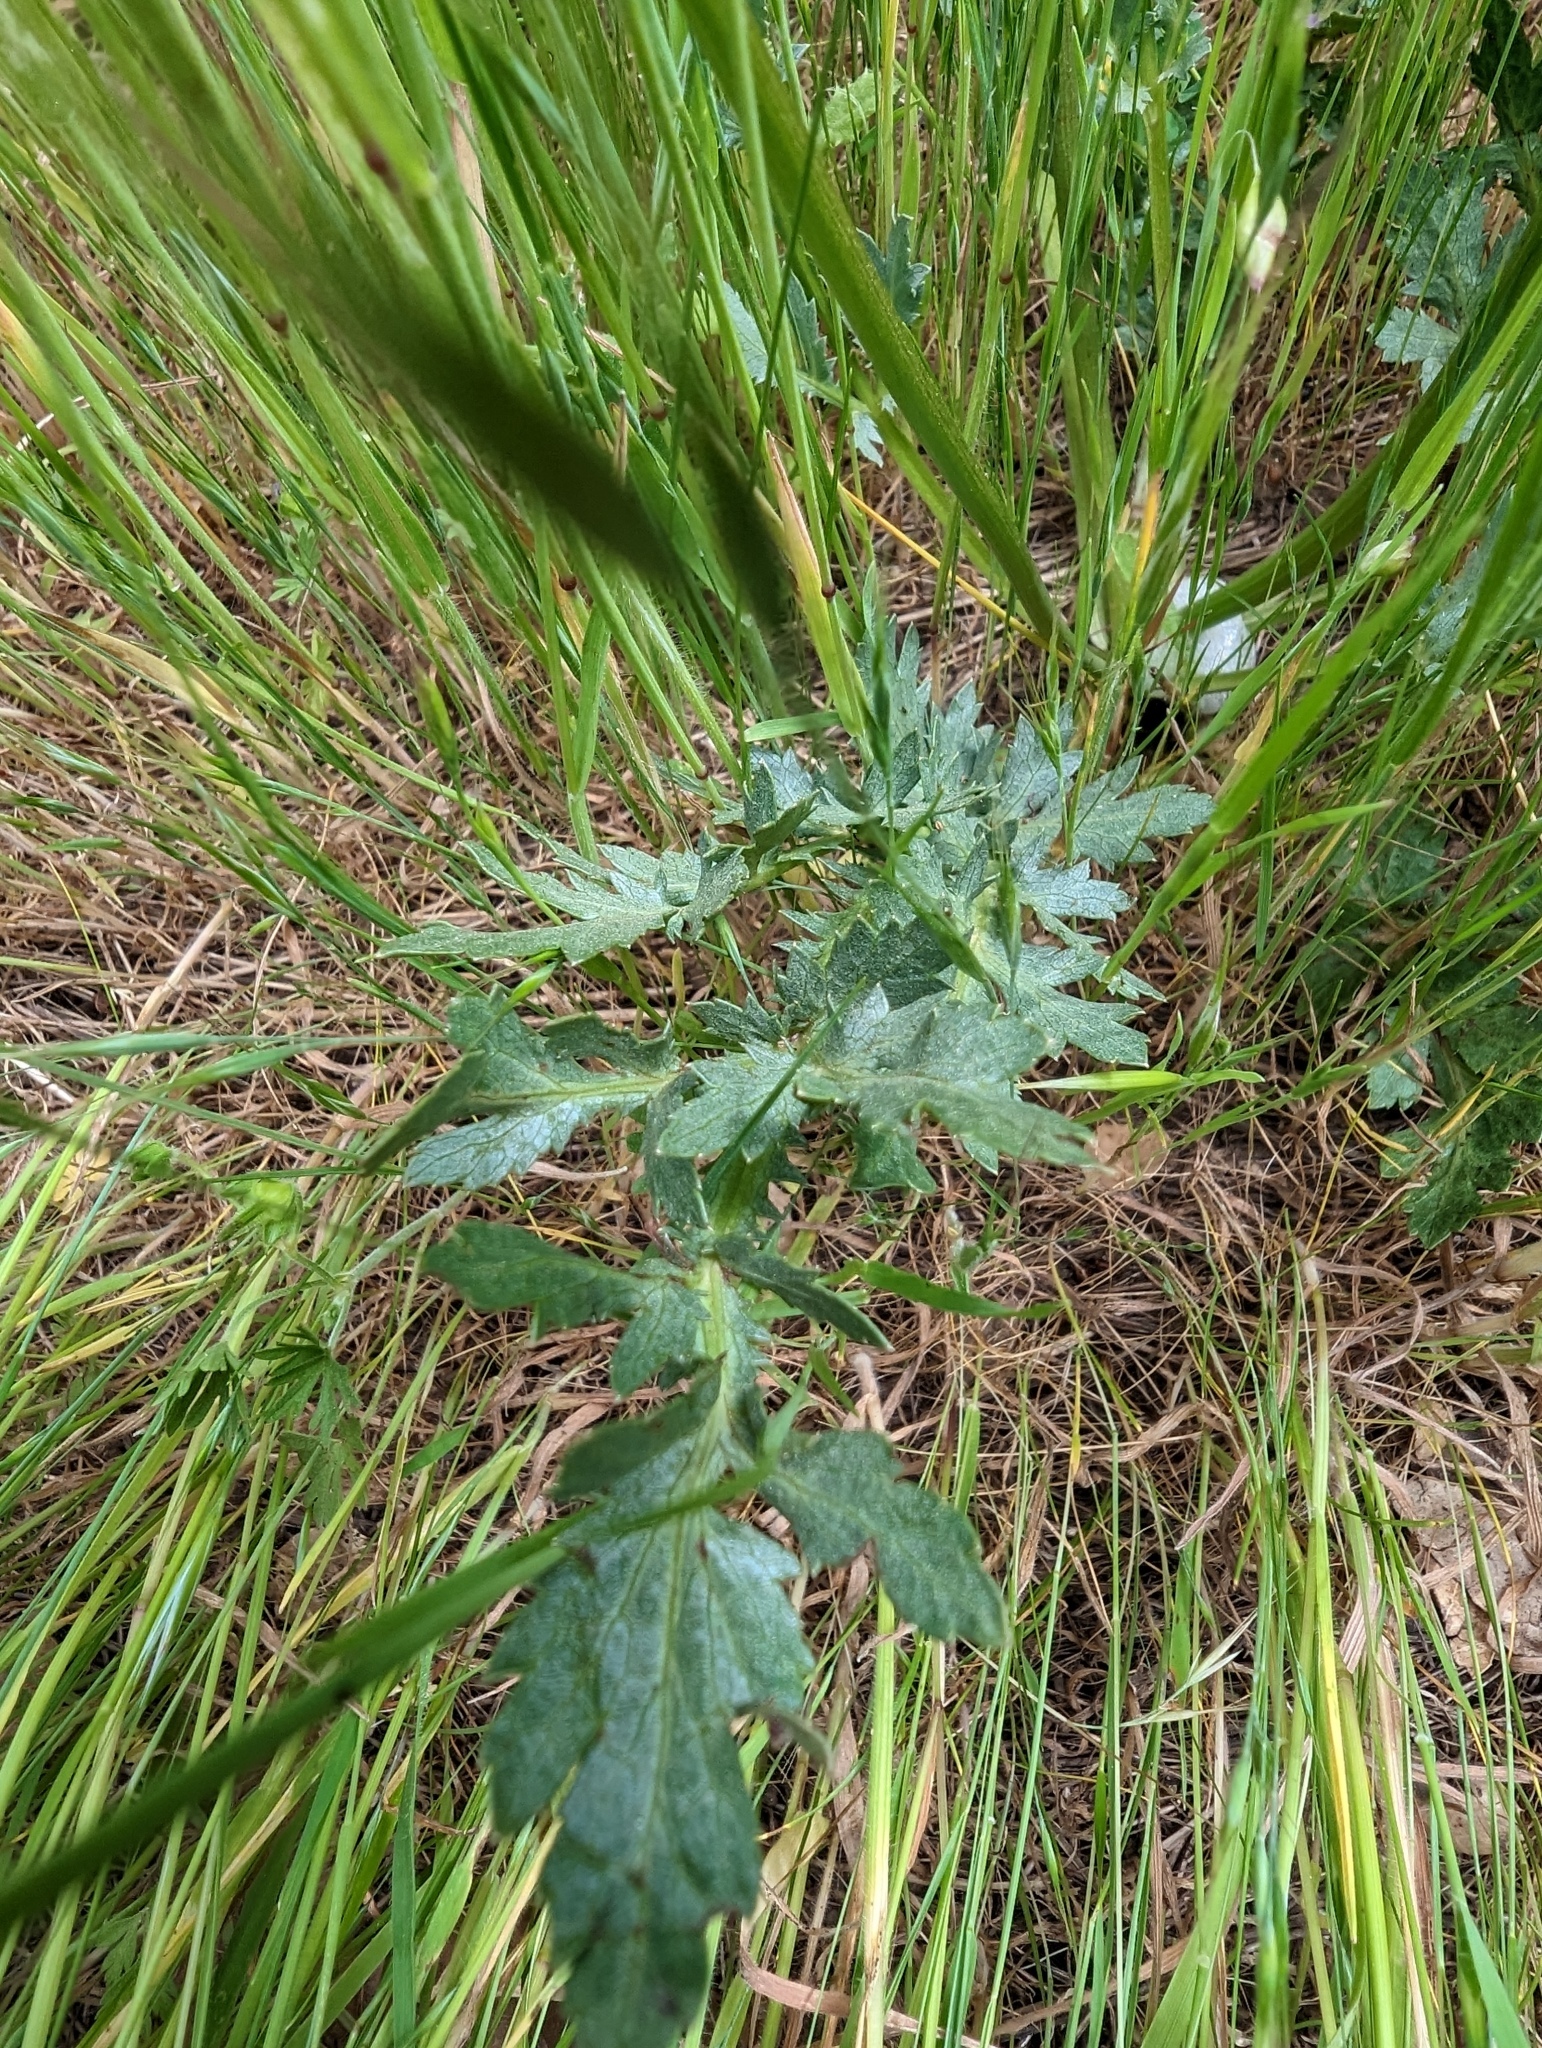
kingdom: Plantae
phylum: Tracheophyta
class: Magnoliopsida
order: Apiales
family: Apiaceae
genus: Sanicula
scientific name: Sanicula bipinnatifida
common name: Shoe-buttons
